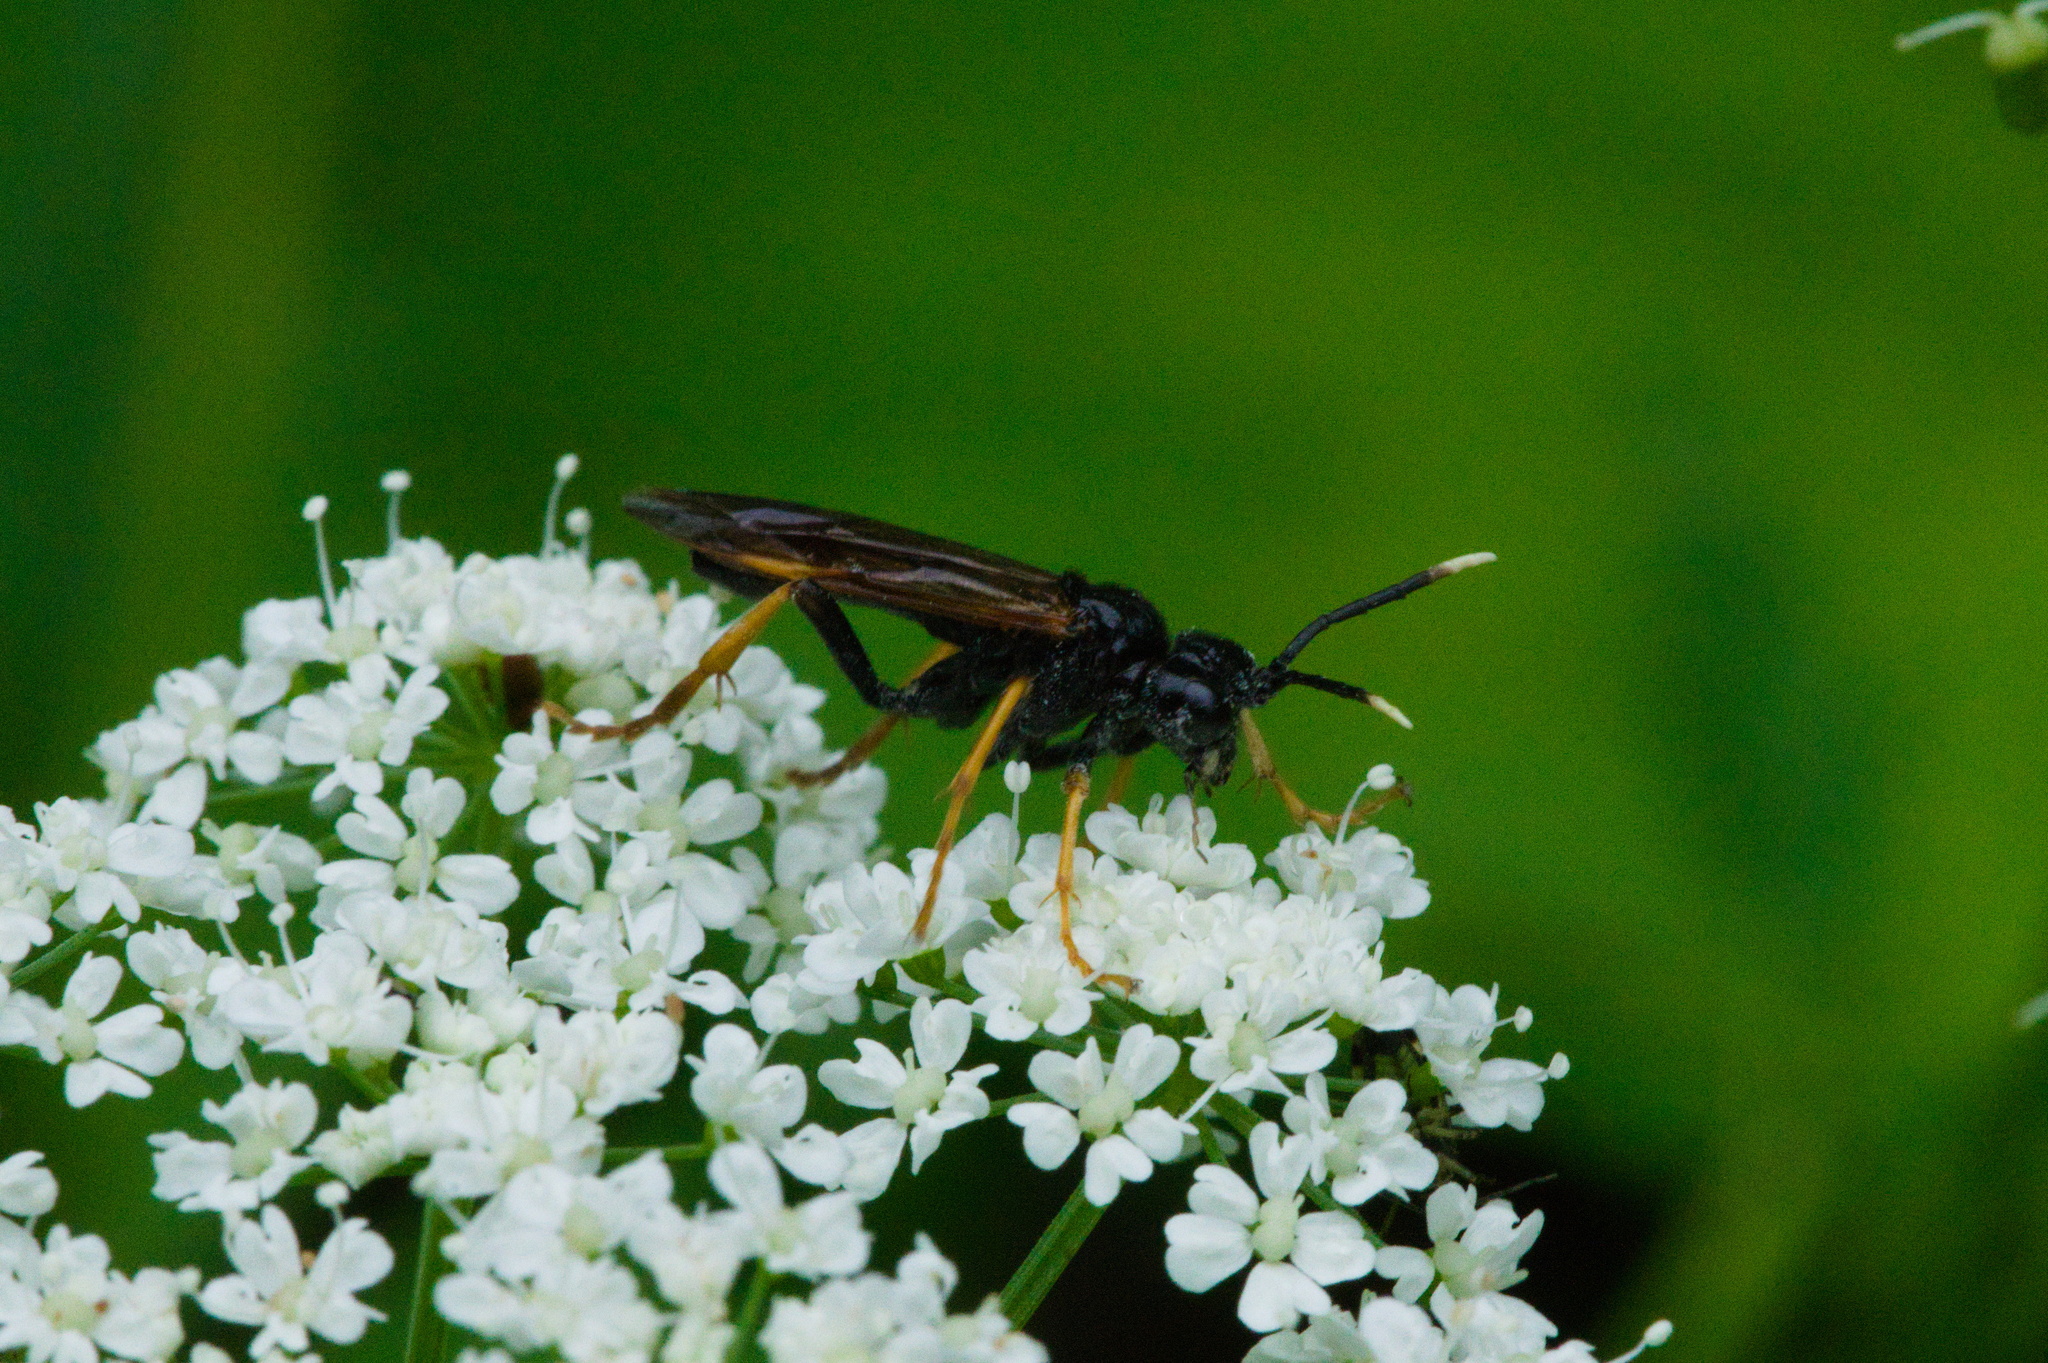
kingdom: Animalia
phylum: Arthropoda
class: Insecta
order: Hymenoptera
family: Tenthredinidae
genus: Tenthredo
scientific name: Tenthredo crassa
